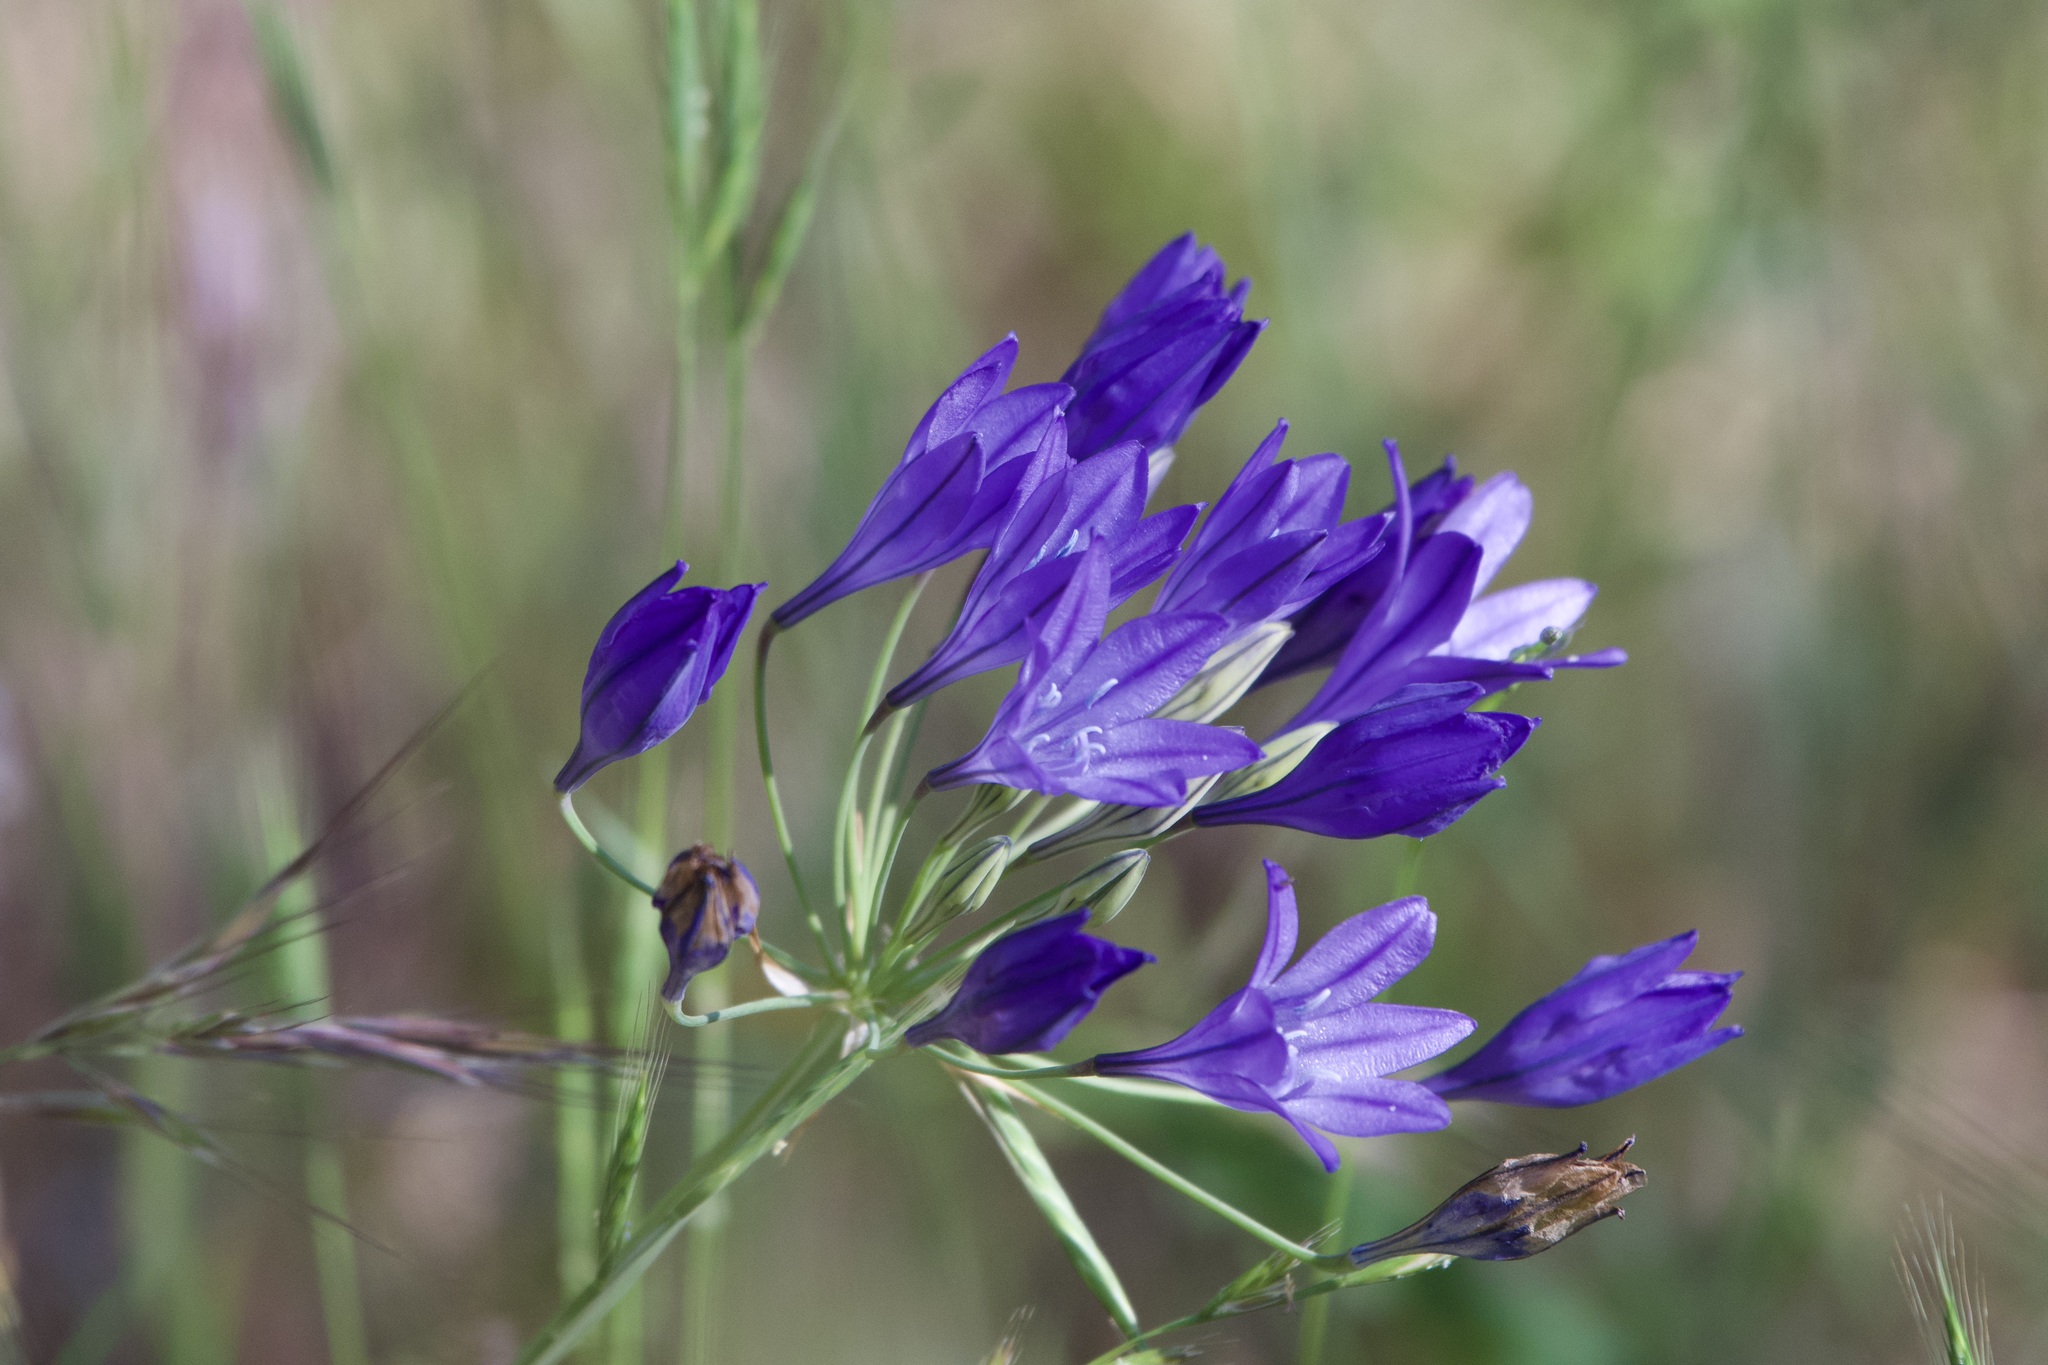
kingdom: Plantae
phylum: Tracheophyta
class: Liliopsida
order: Asparagales
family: Asparagaceae
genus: Triteleia
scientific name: Triteleia laxa
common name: Triplet-lily
